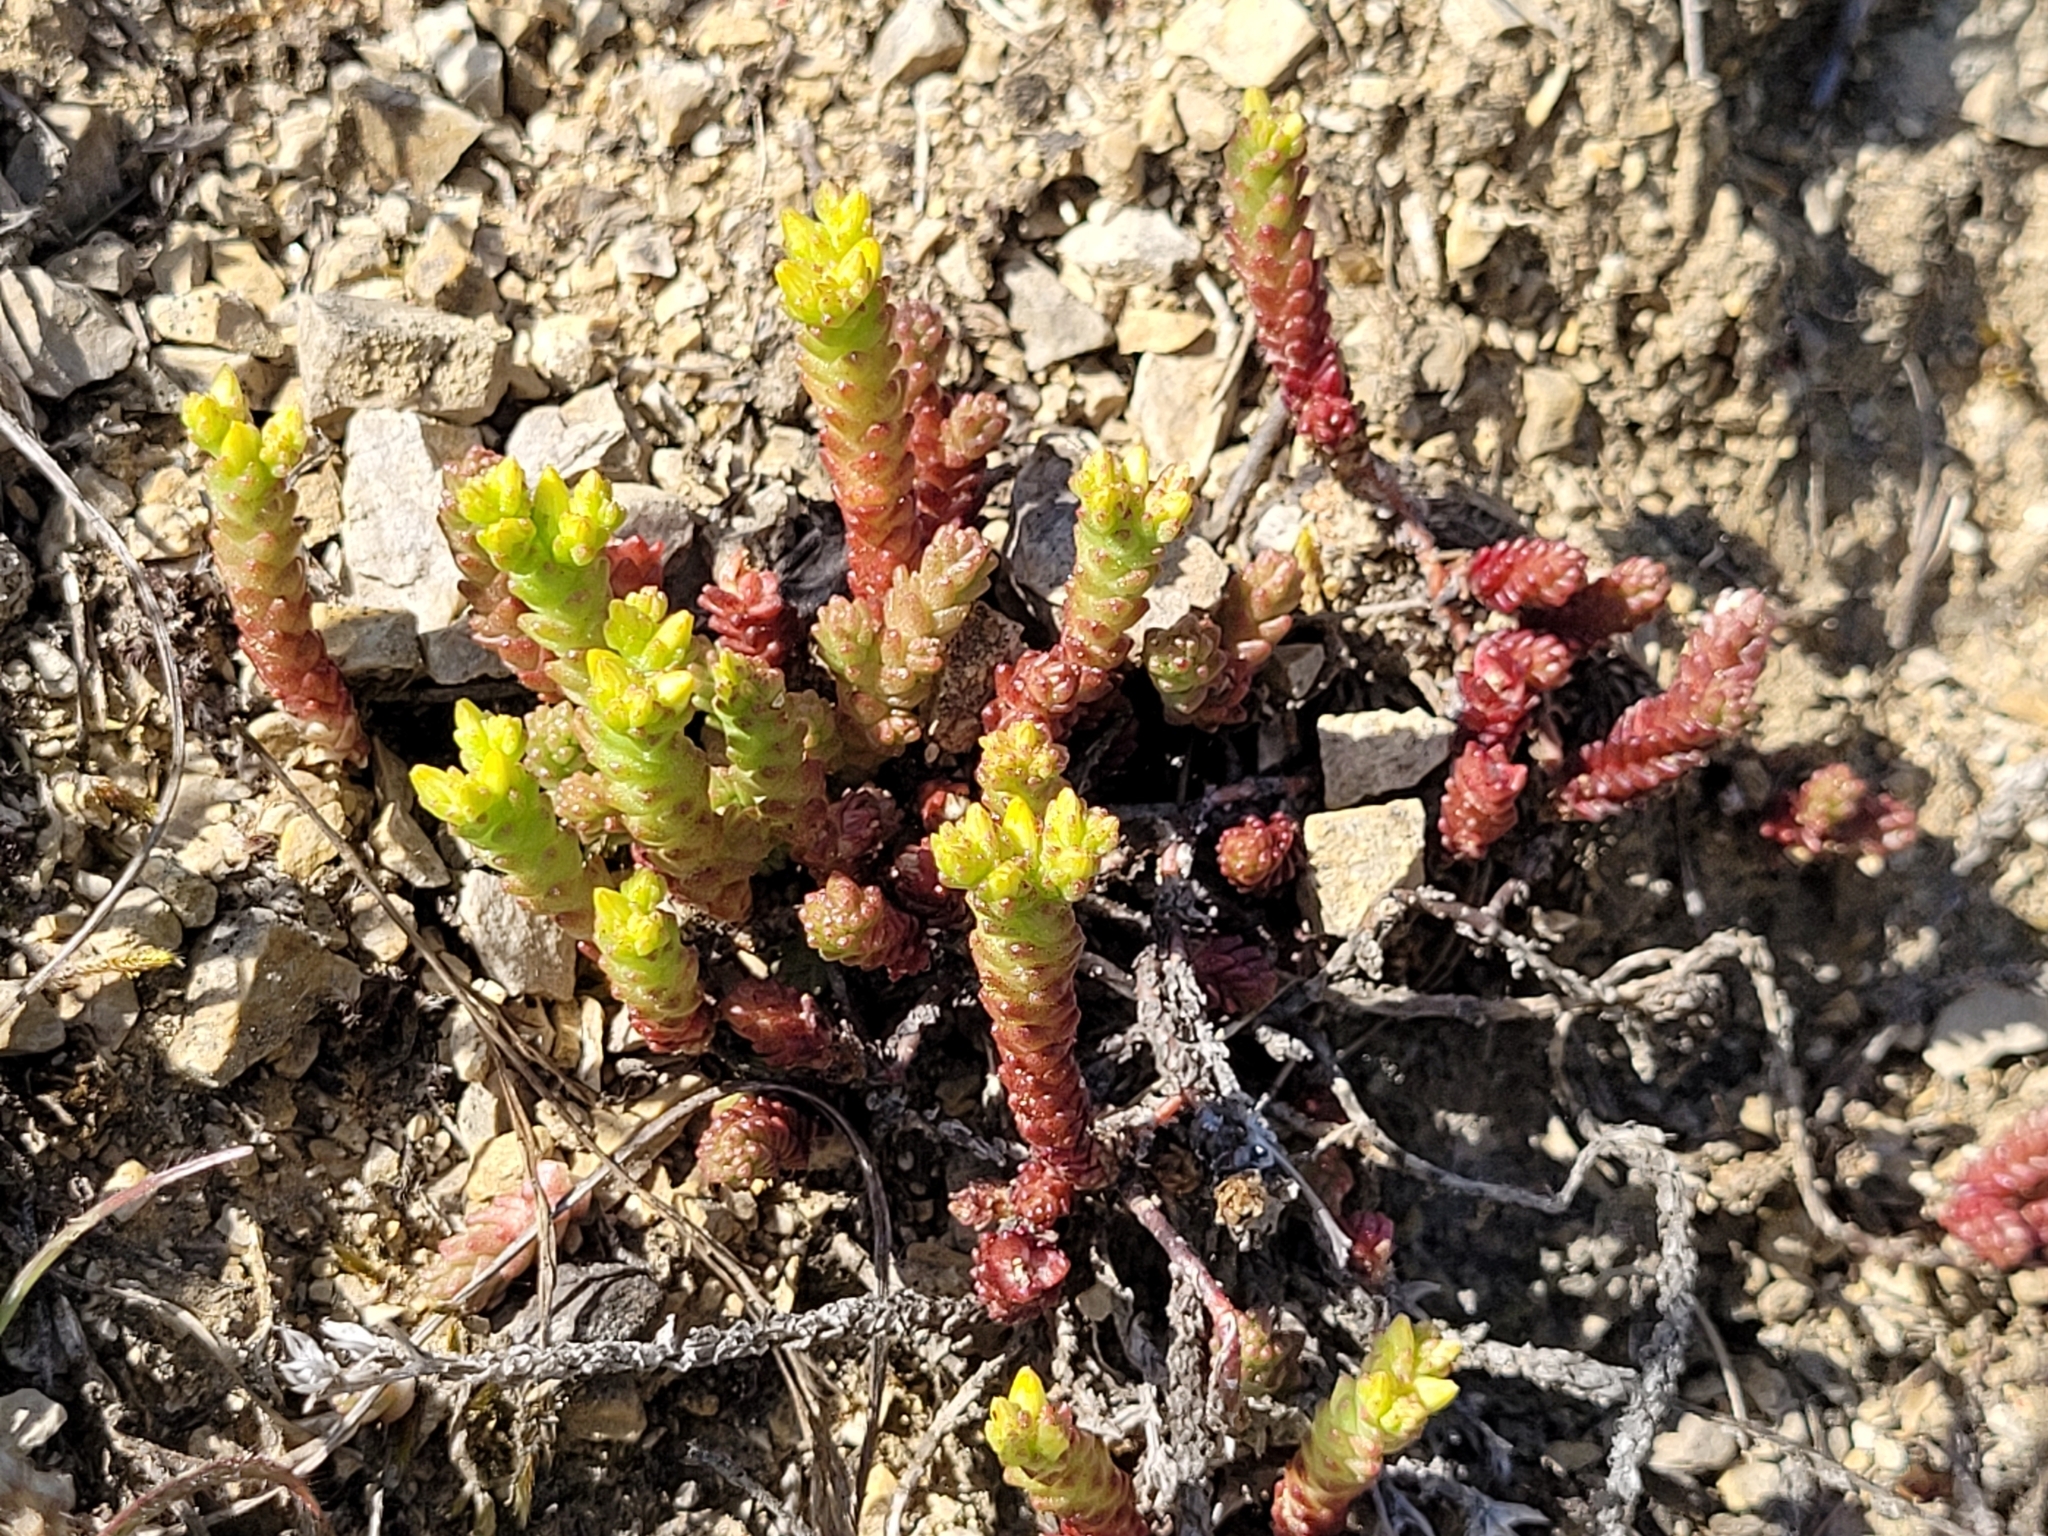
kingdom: Plantae
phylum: Tracheophyta
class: Magnoliopsida
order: Saxifragales
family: Crassulaceae
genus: Sedum
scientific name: Sedum acre
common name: Biting stonecrop
